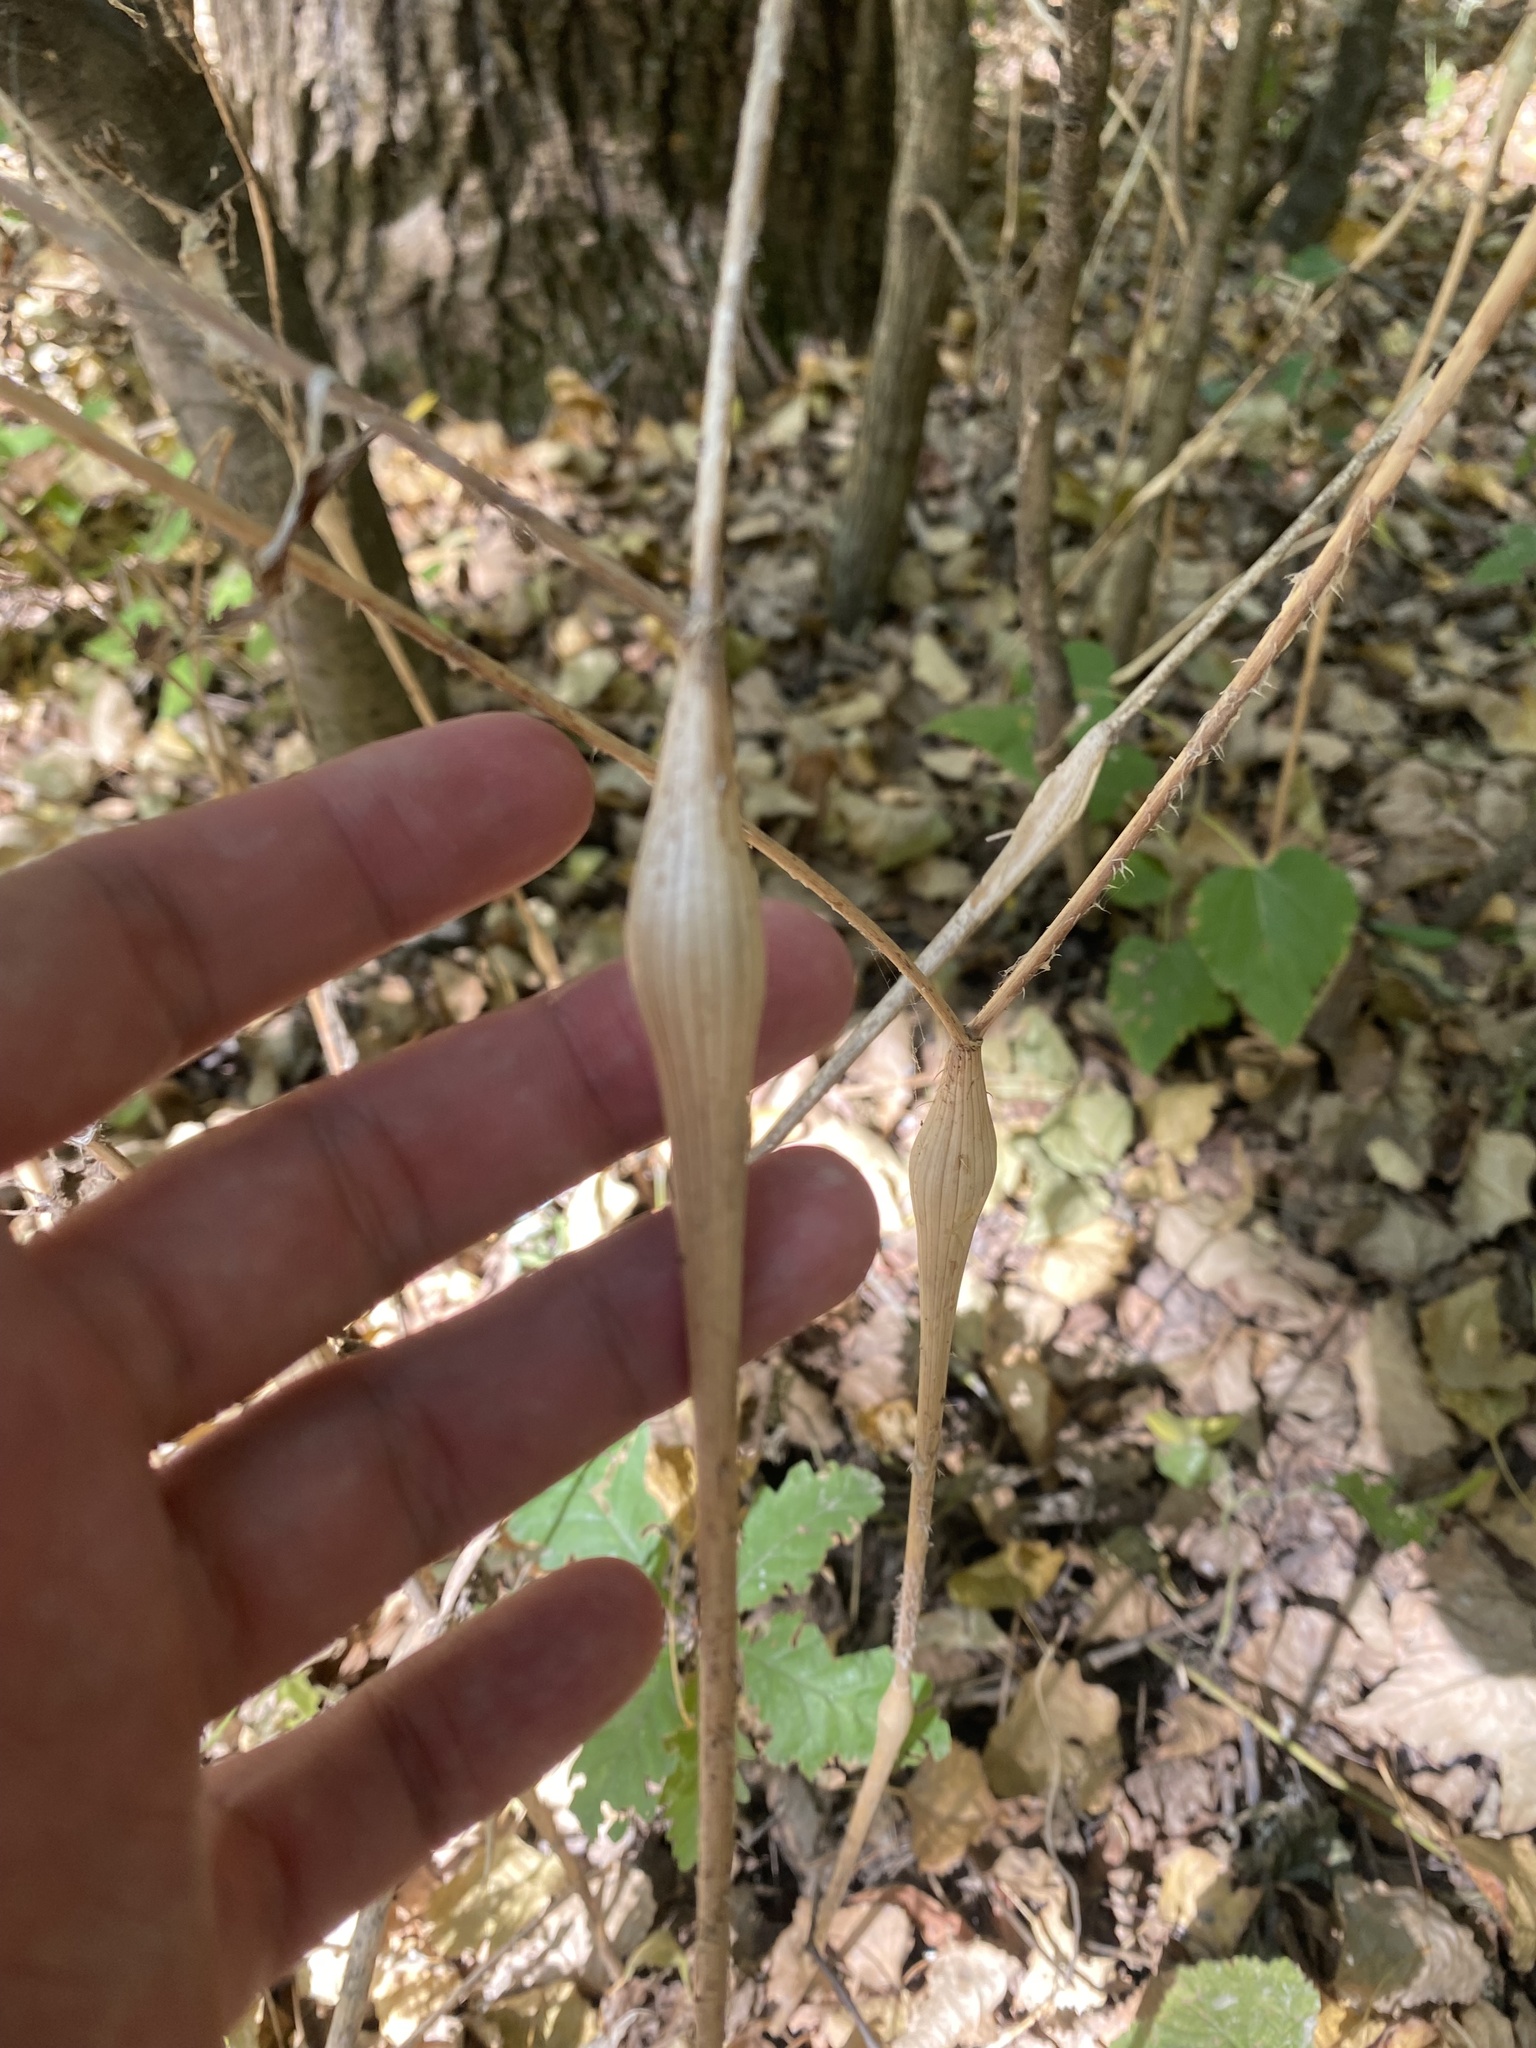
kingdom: Plantae
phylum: Tracheophyta
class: Magnoliopsida
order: Apiales
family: Apiaceae
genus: Chaerophyllum
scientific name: Chaerophyllum nodosum
